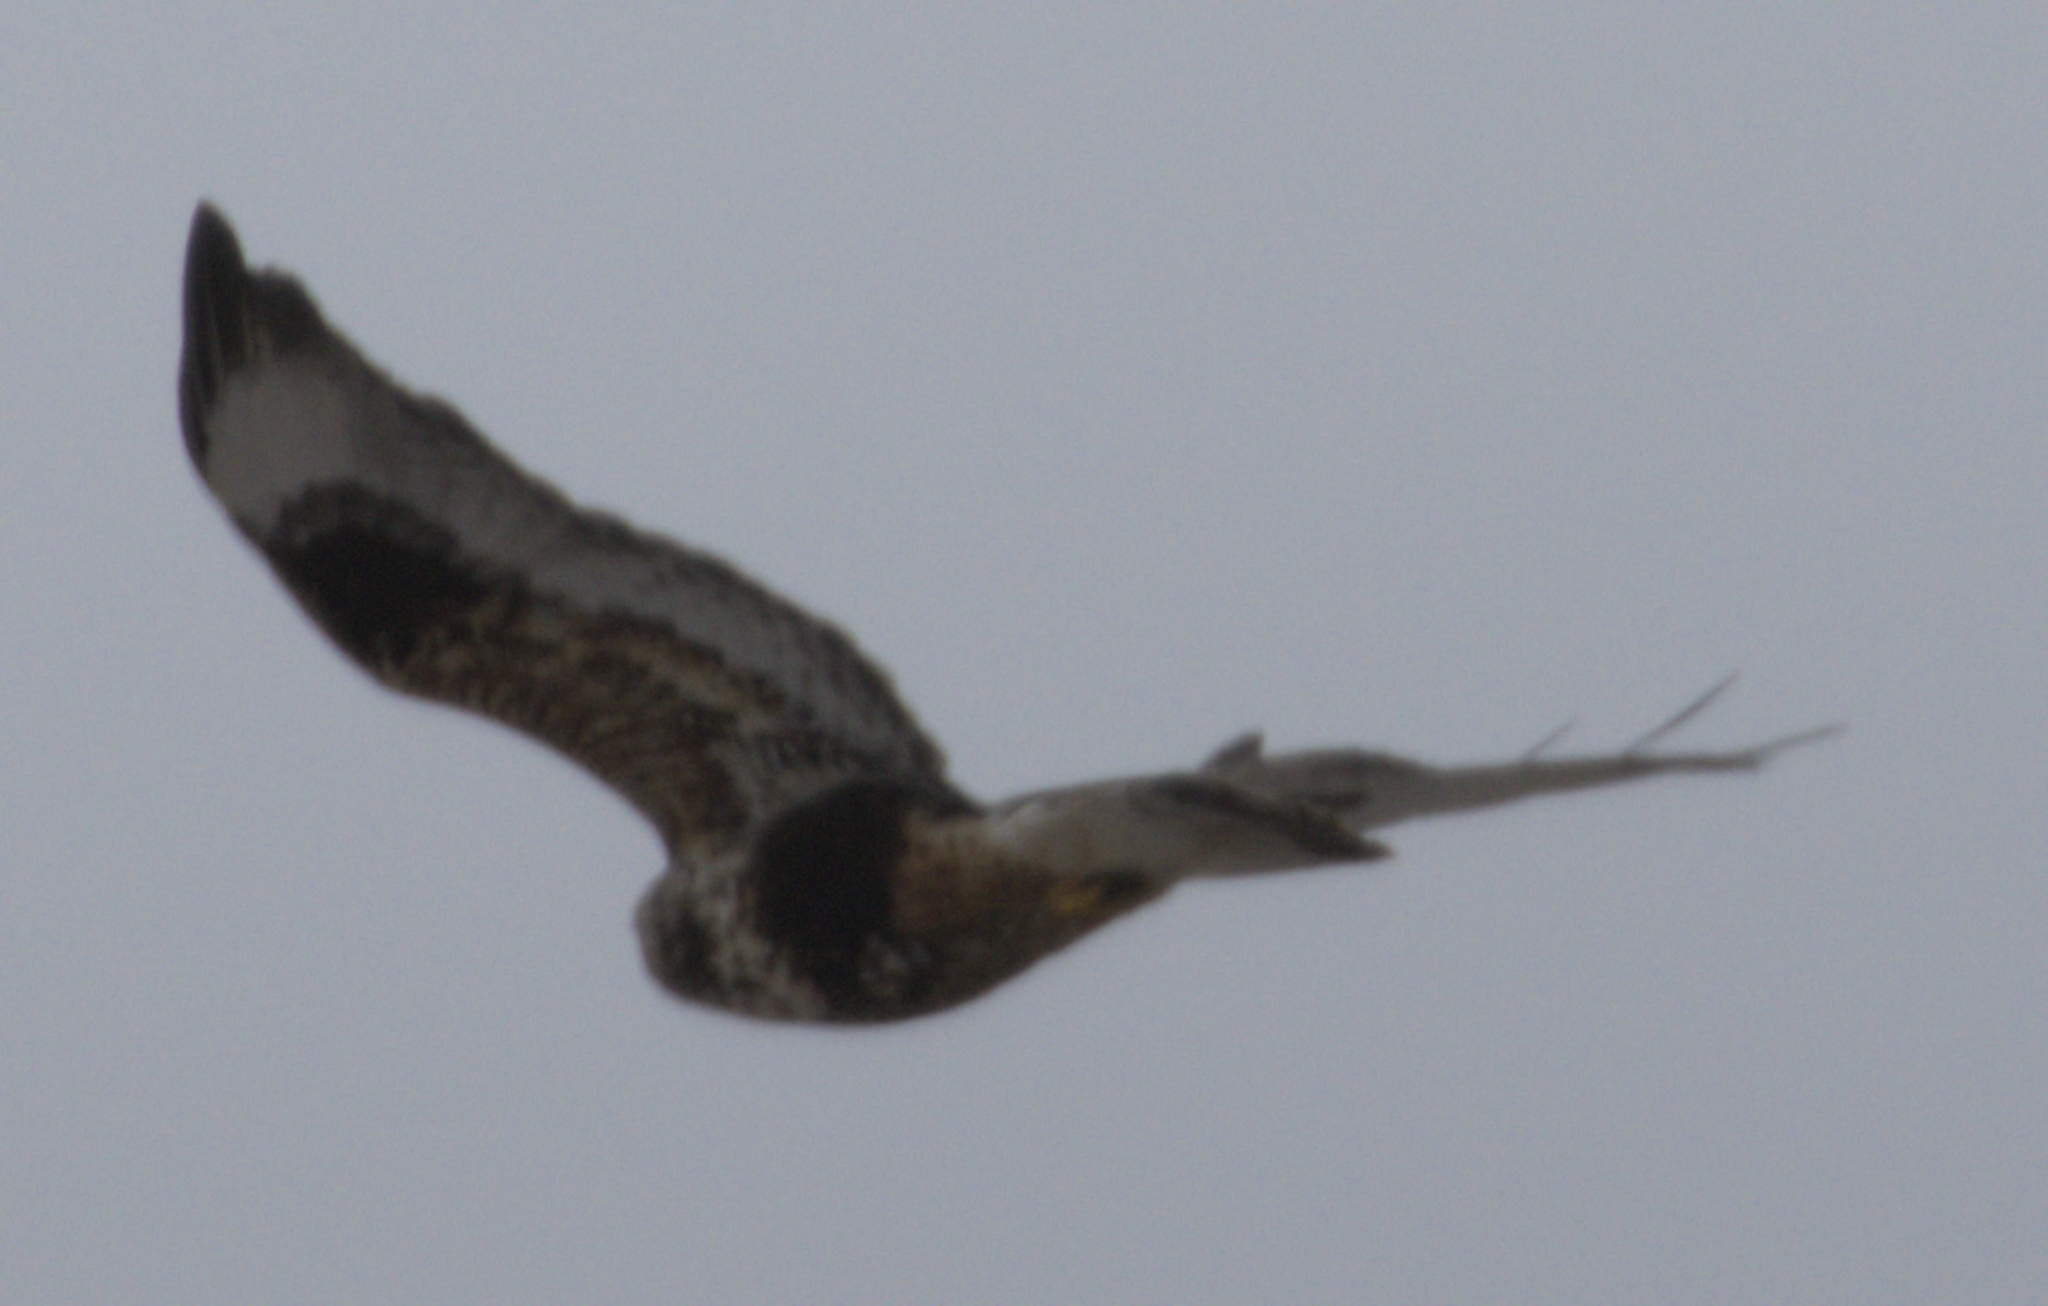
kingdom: Animalia
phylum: Chordata
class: Aves
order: Accipitriformes
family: Accipitridae
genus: Buteo
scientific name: Buteo lagopus
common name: Rough-legged buzzard
